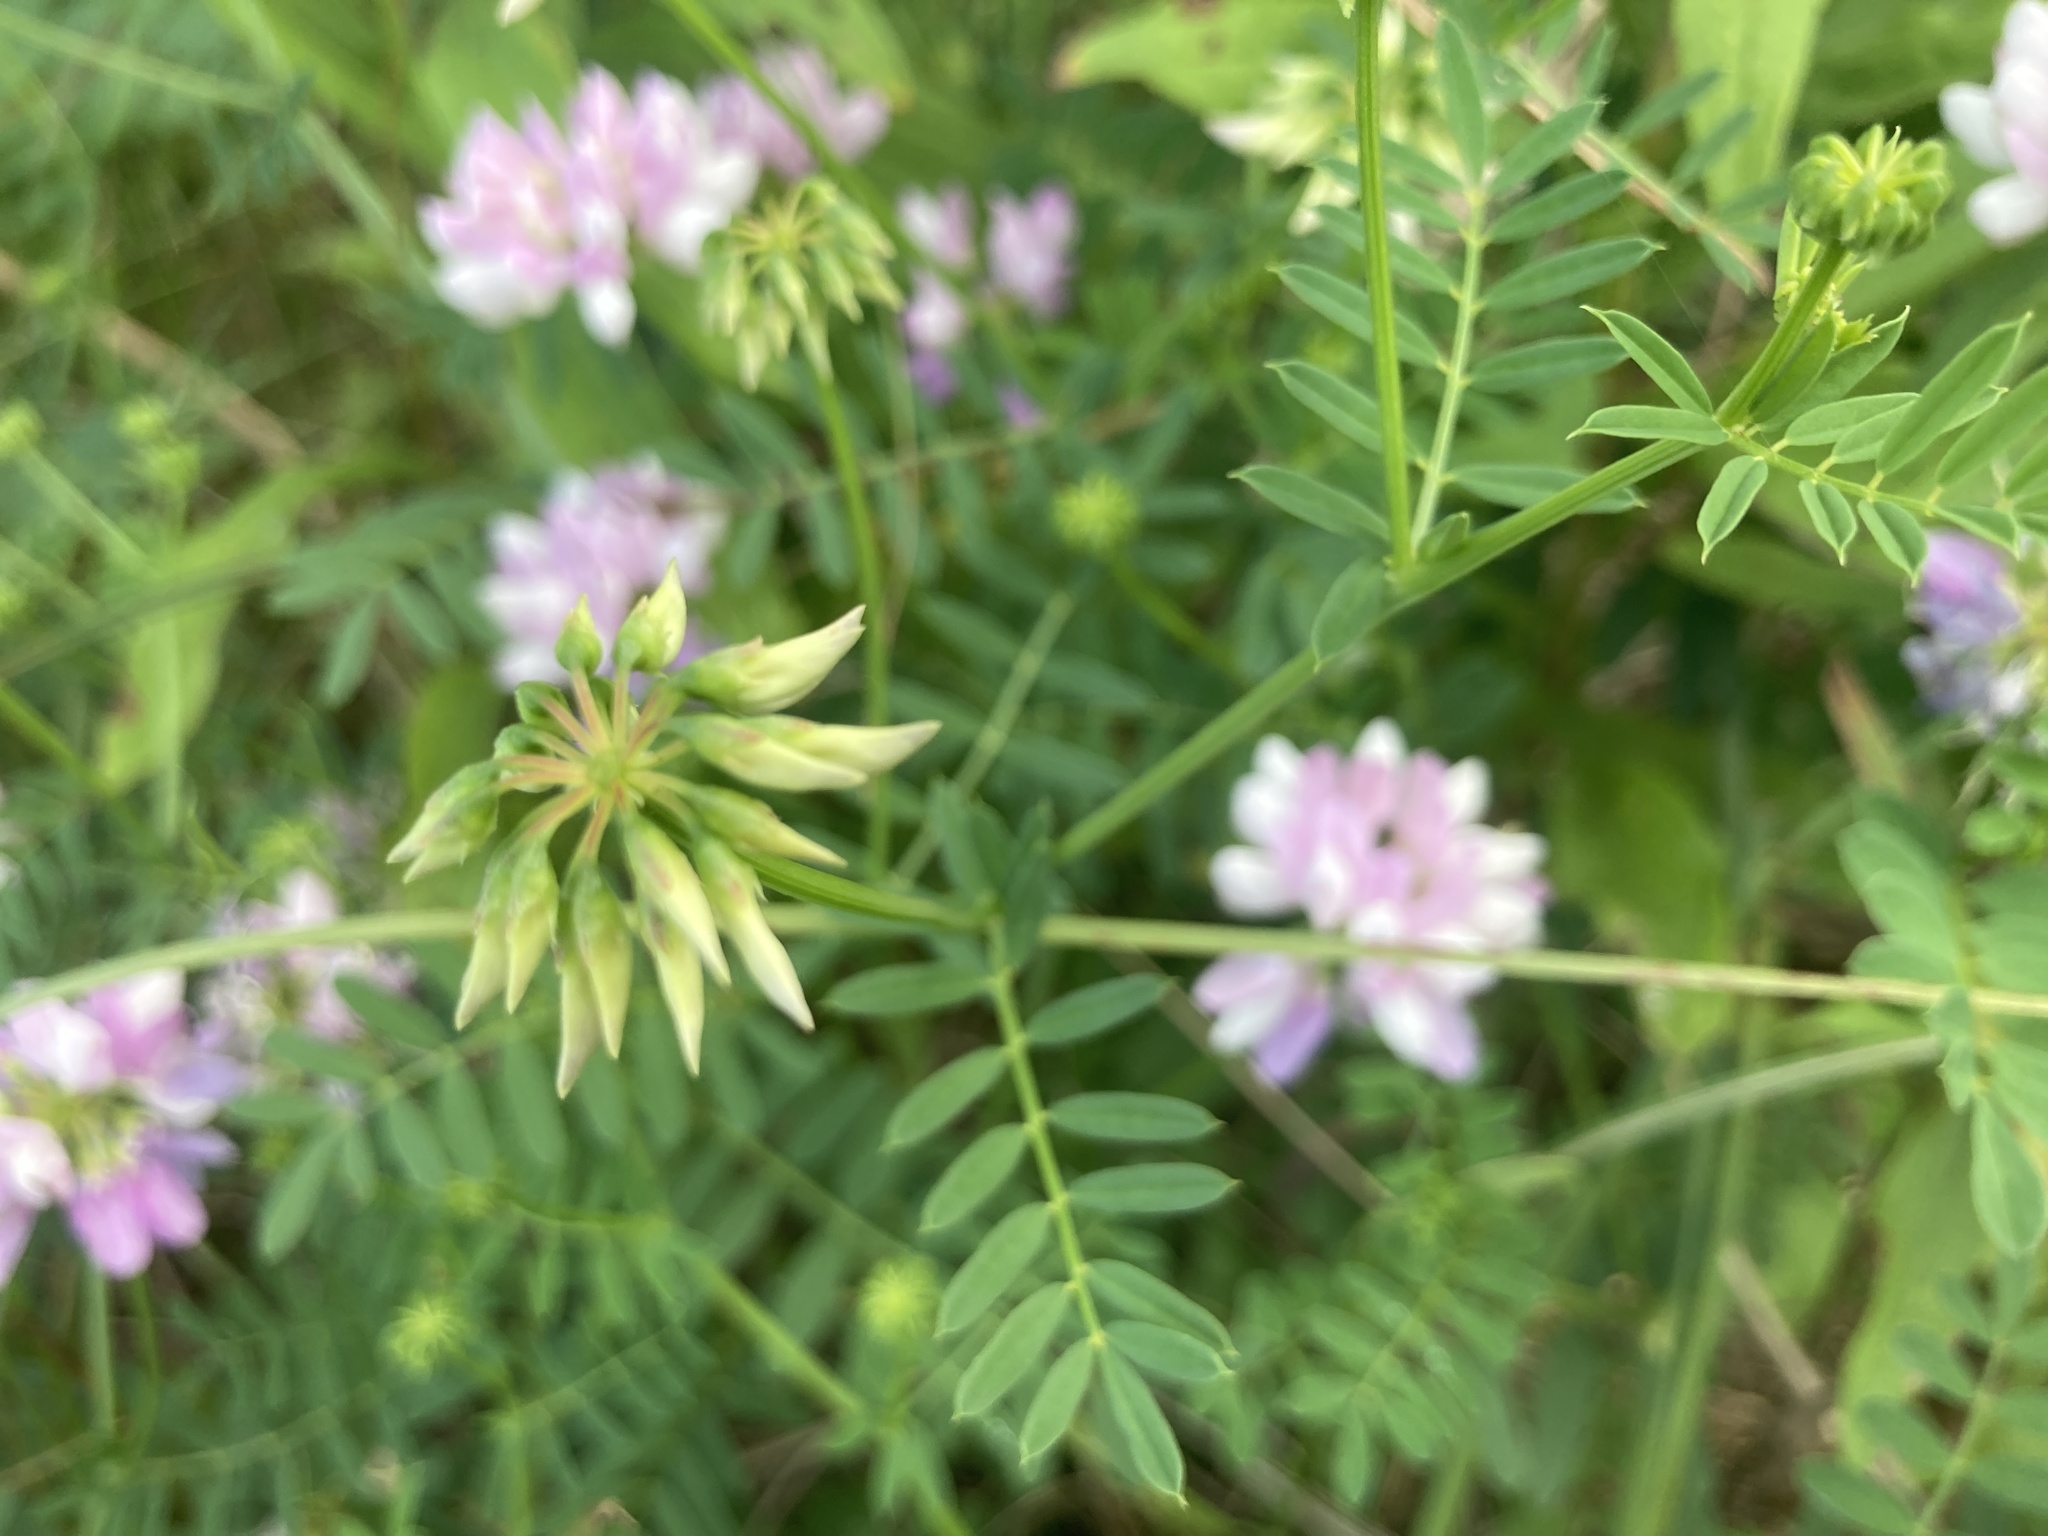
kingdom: Plantae
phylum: Tracheophyta
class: Magnoliopsida
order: Fabales
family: Fabaceae
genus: Coronilla
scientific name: Coronilla varia
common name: Crownvetch
